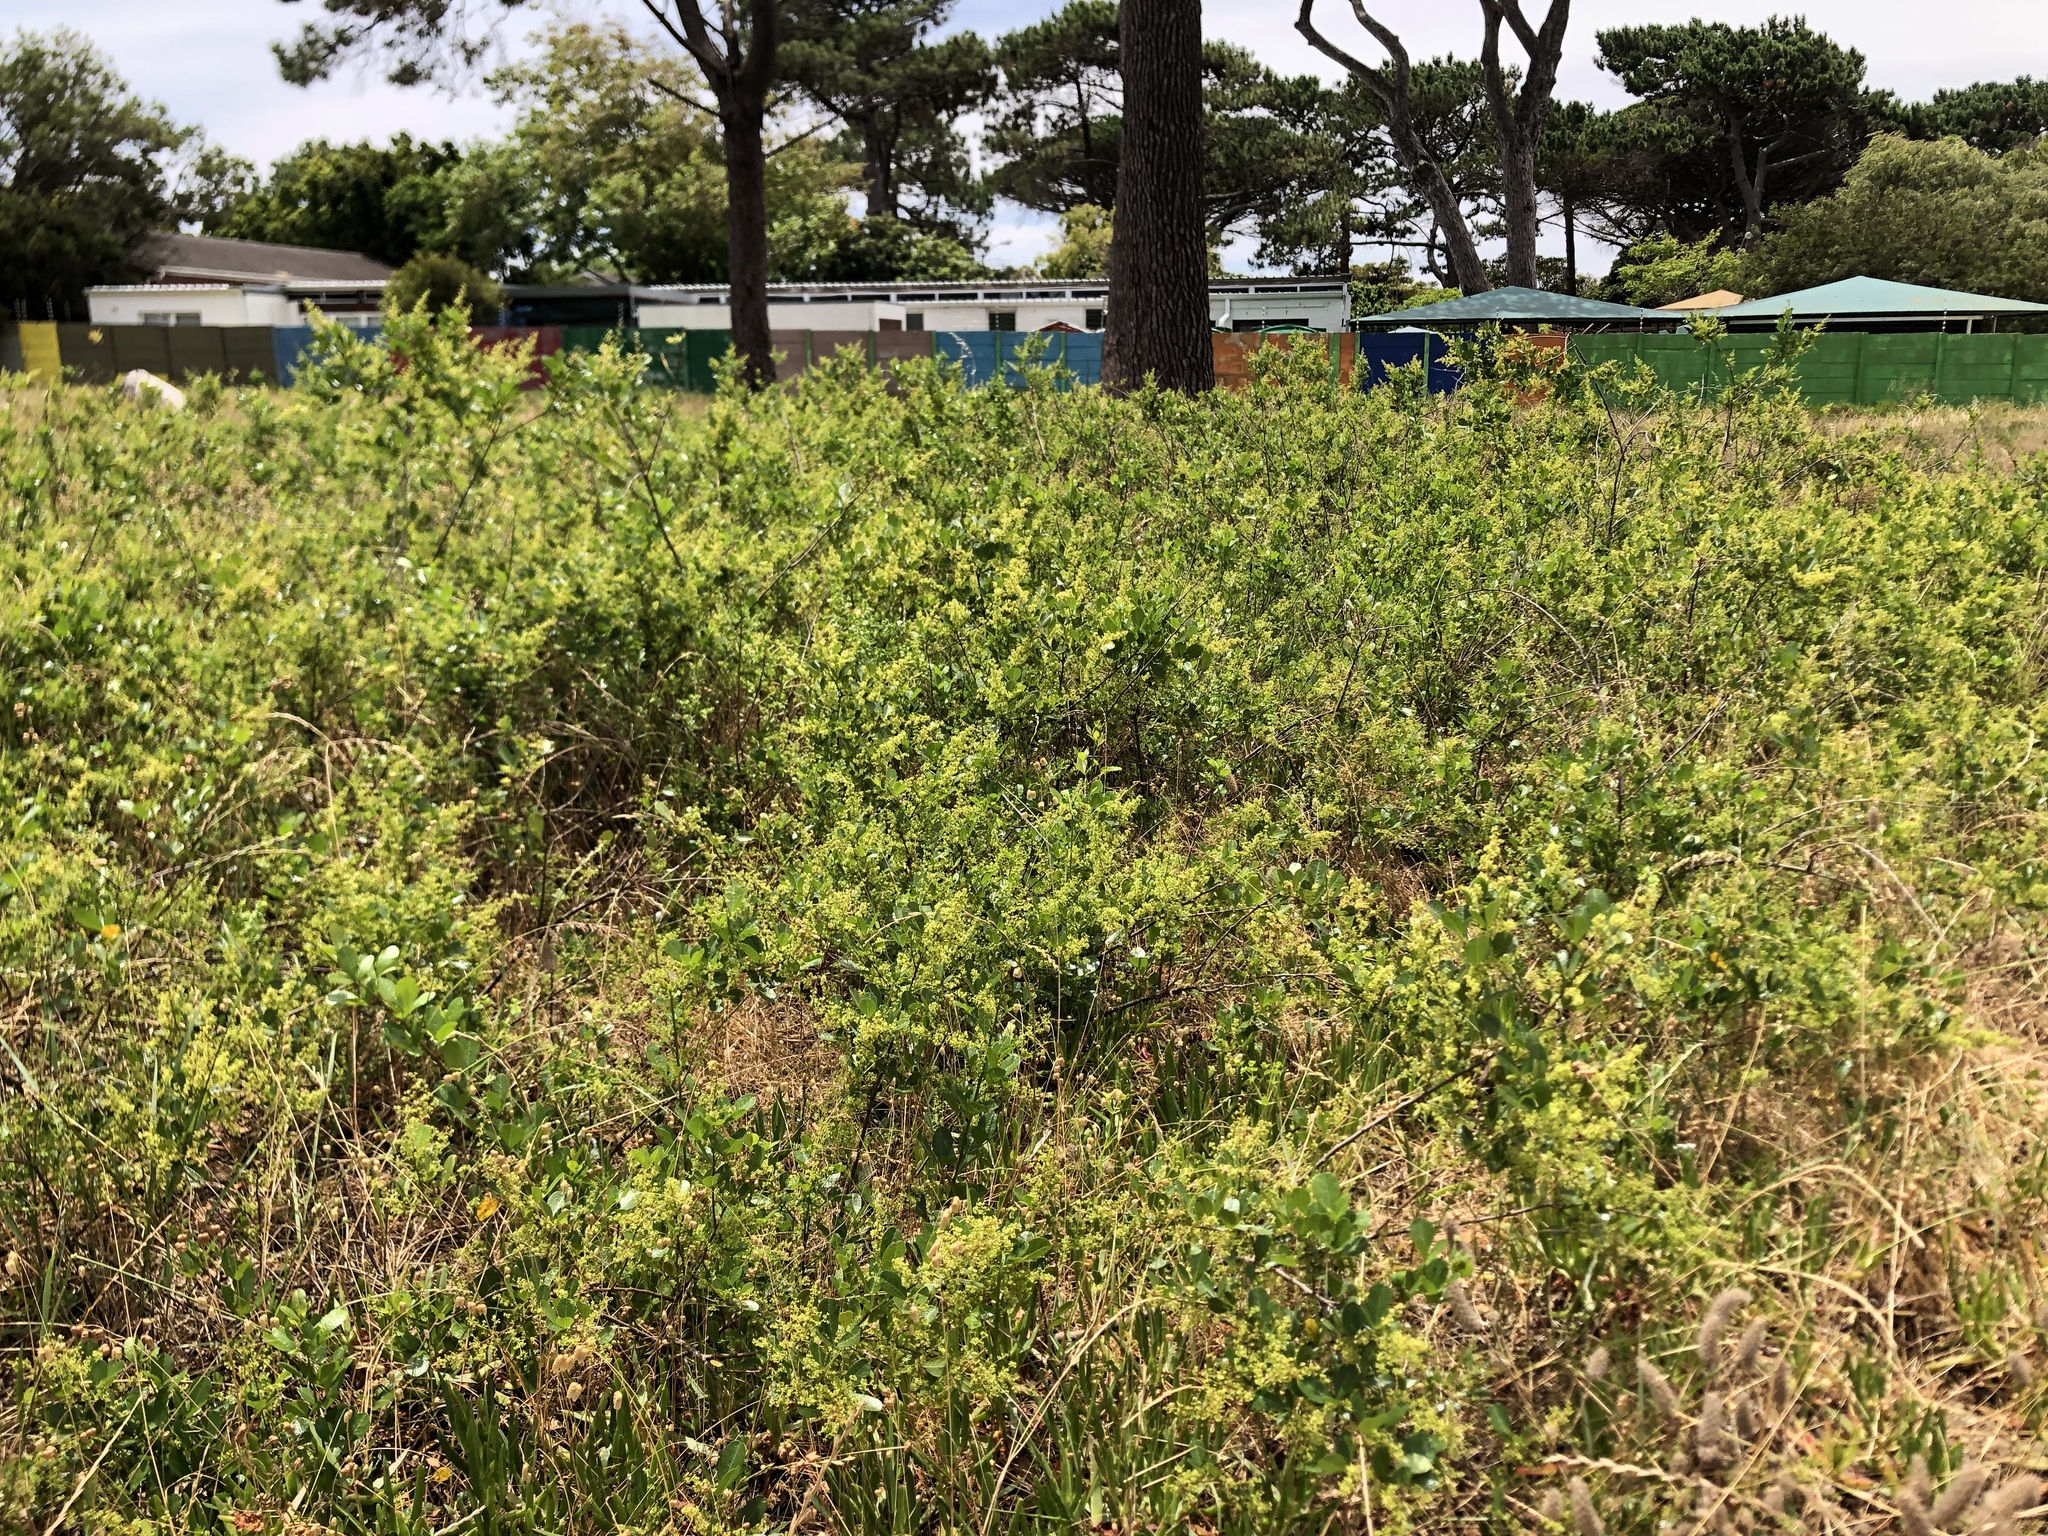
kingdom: Plantae
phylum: Tracheophyta
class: Magnoliopsida
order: Sapindales
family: Anacardiaceae
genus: Searsia
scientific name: Searsia laevigata
